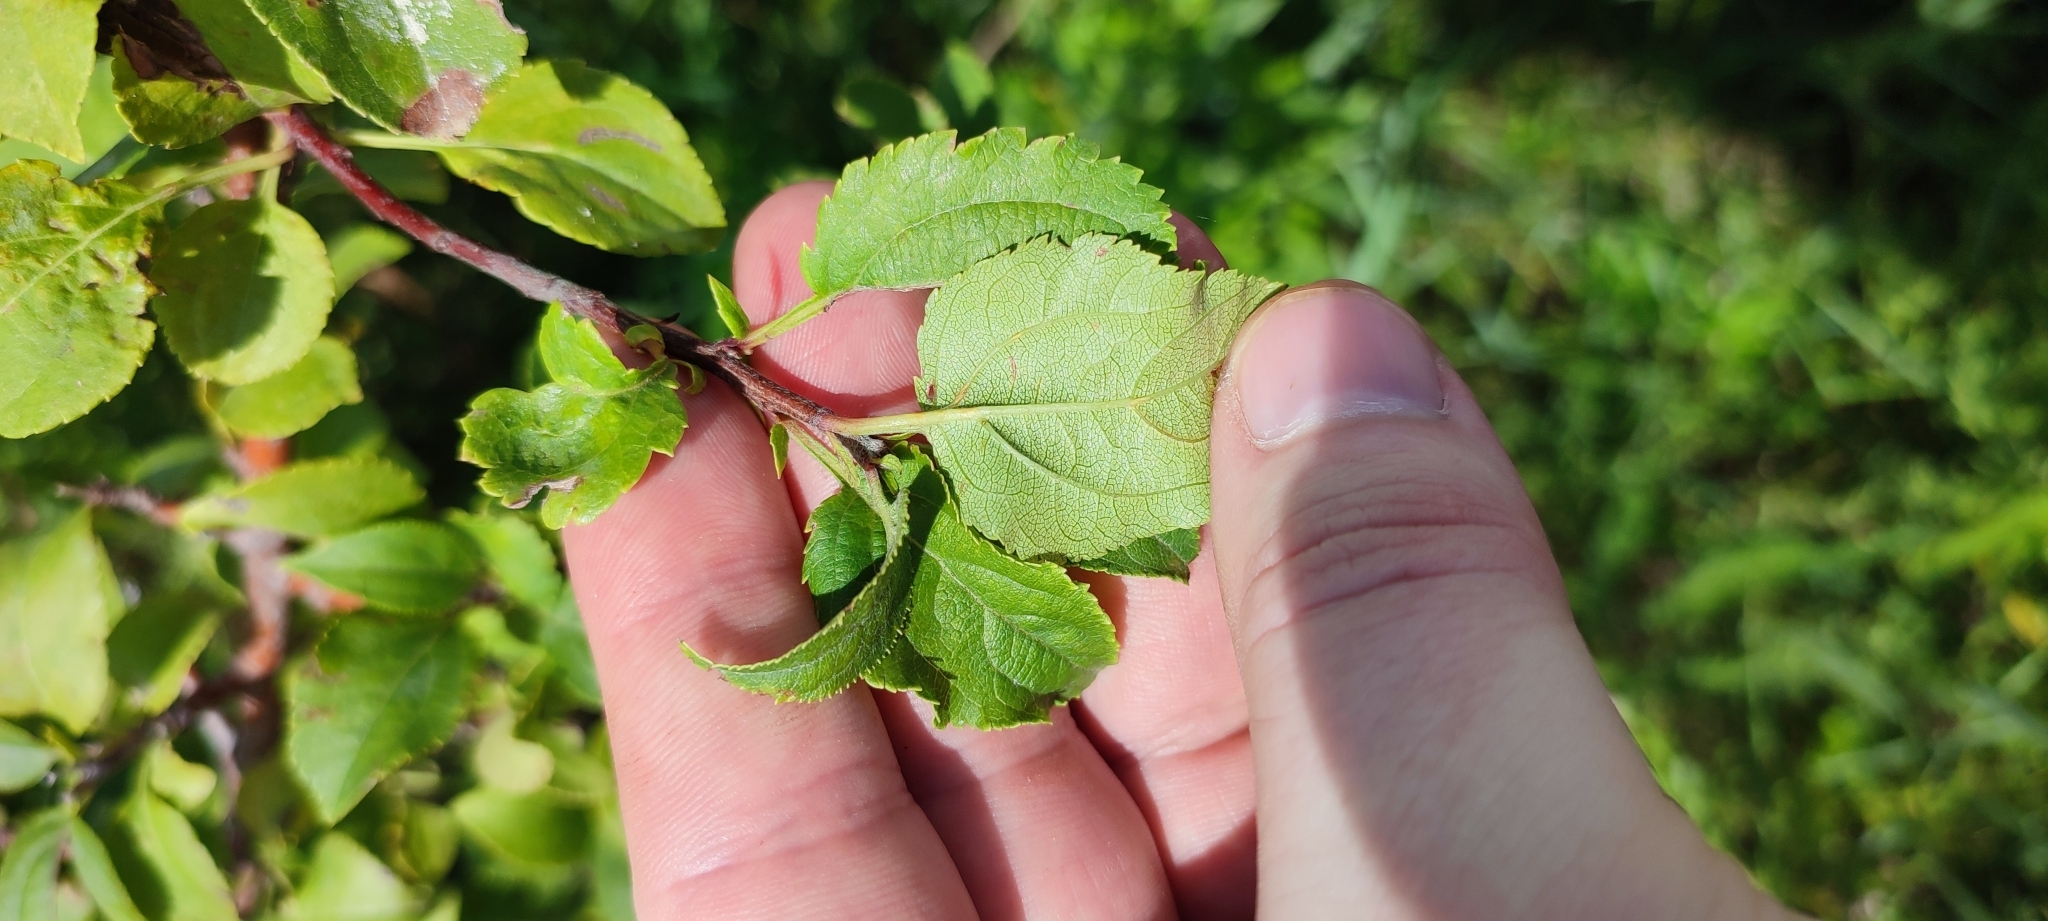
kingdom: Plantae
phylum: Tracheophyta
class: Magnoliopsida
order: Rosales
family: Rosaceae
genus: Malus
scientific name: Malus baccata
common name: Siberian crab
